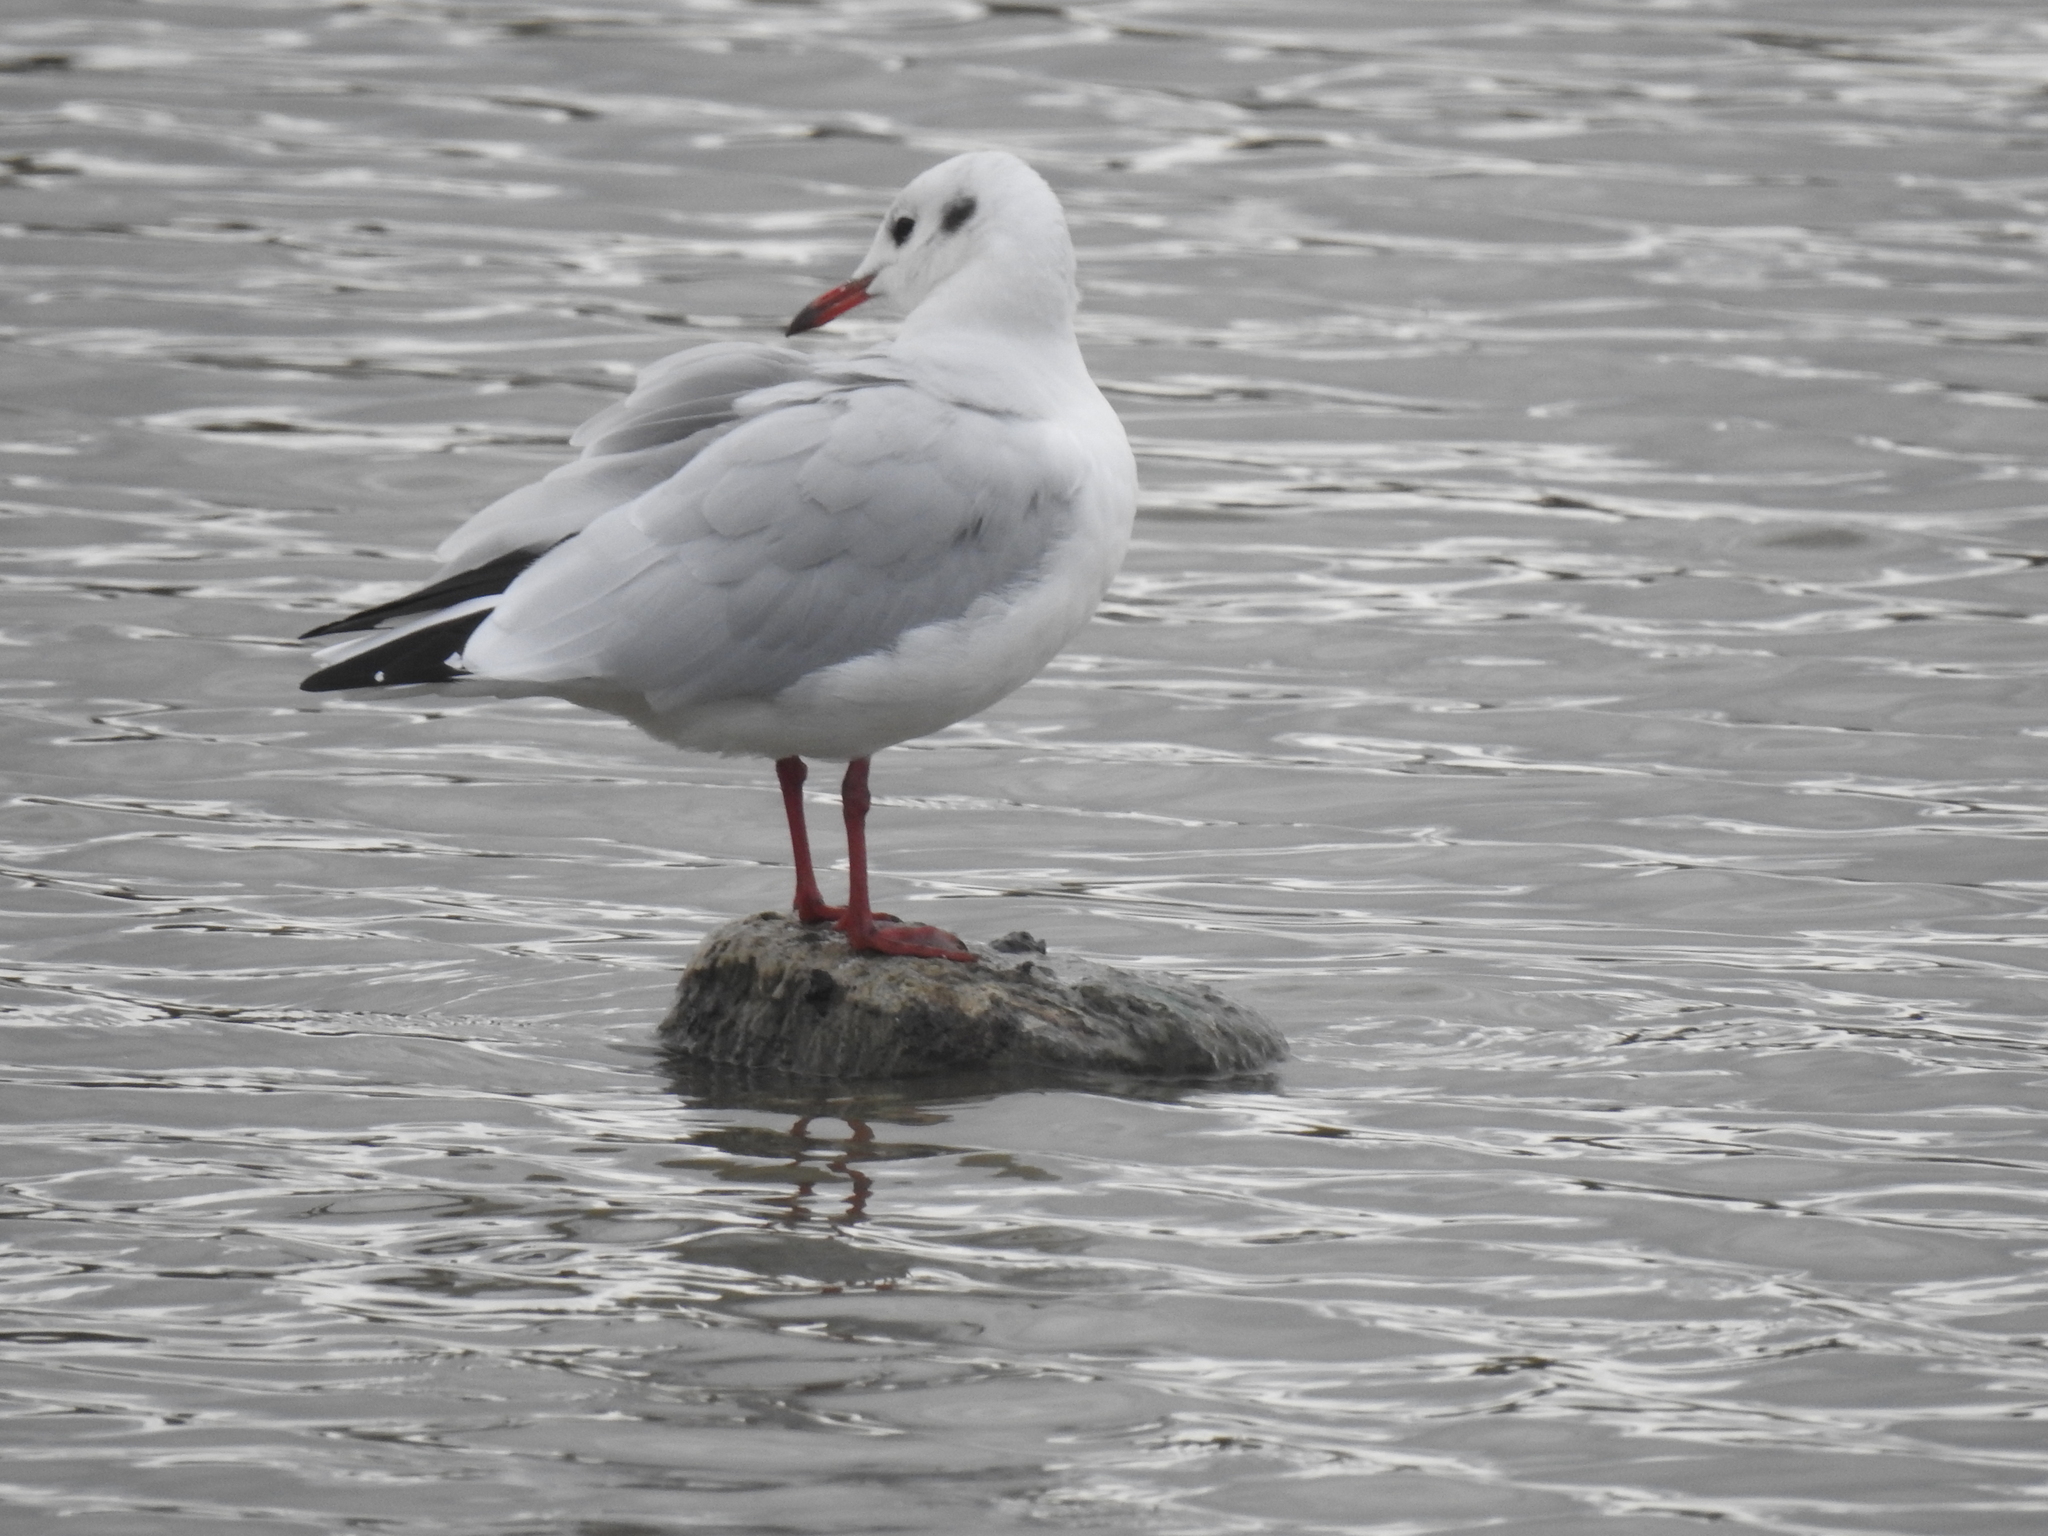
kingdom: Animalia
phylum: Chordata
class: Aves
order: Charadriiformes
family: Laridae
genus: Chroicocephalus
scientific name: Chroicocephalus ridibundus
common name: Black-headed gull
